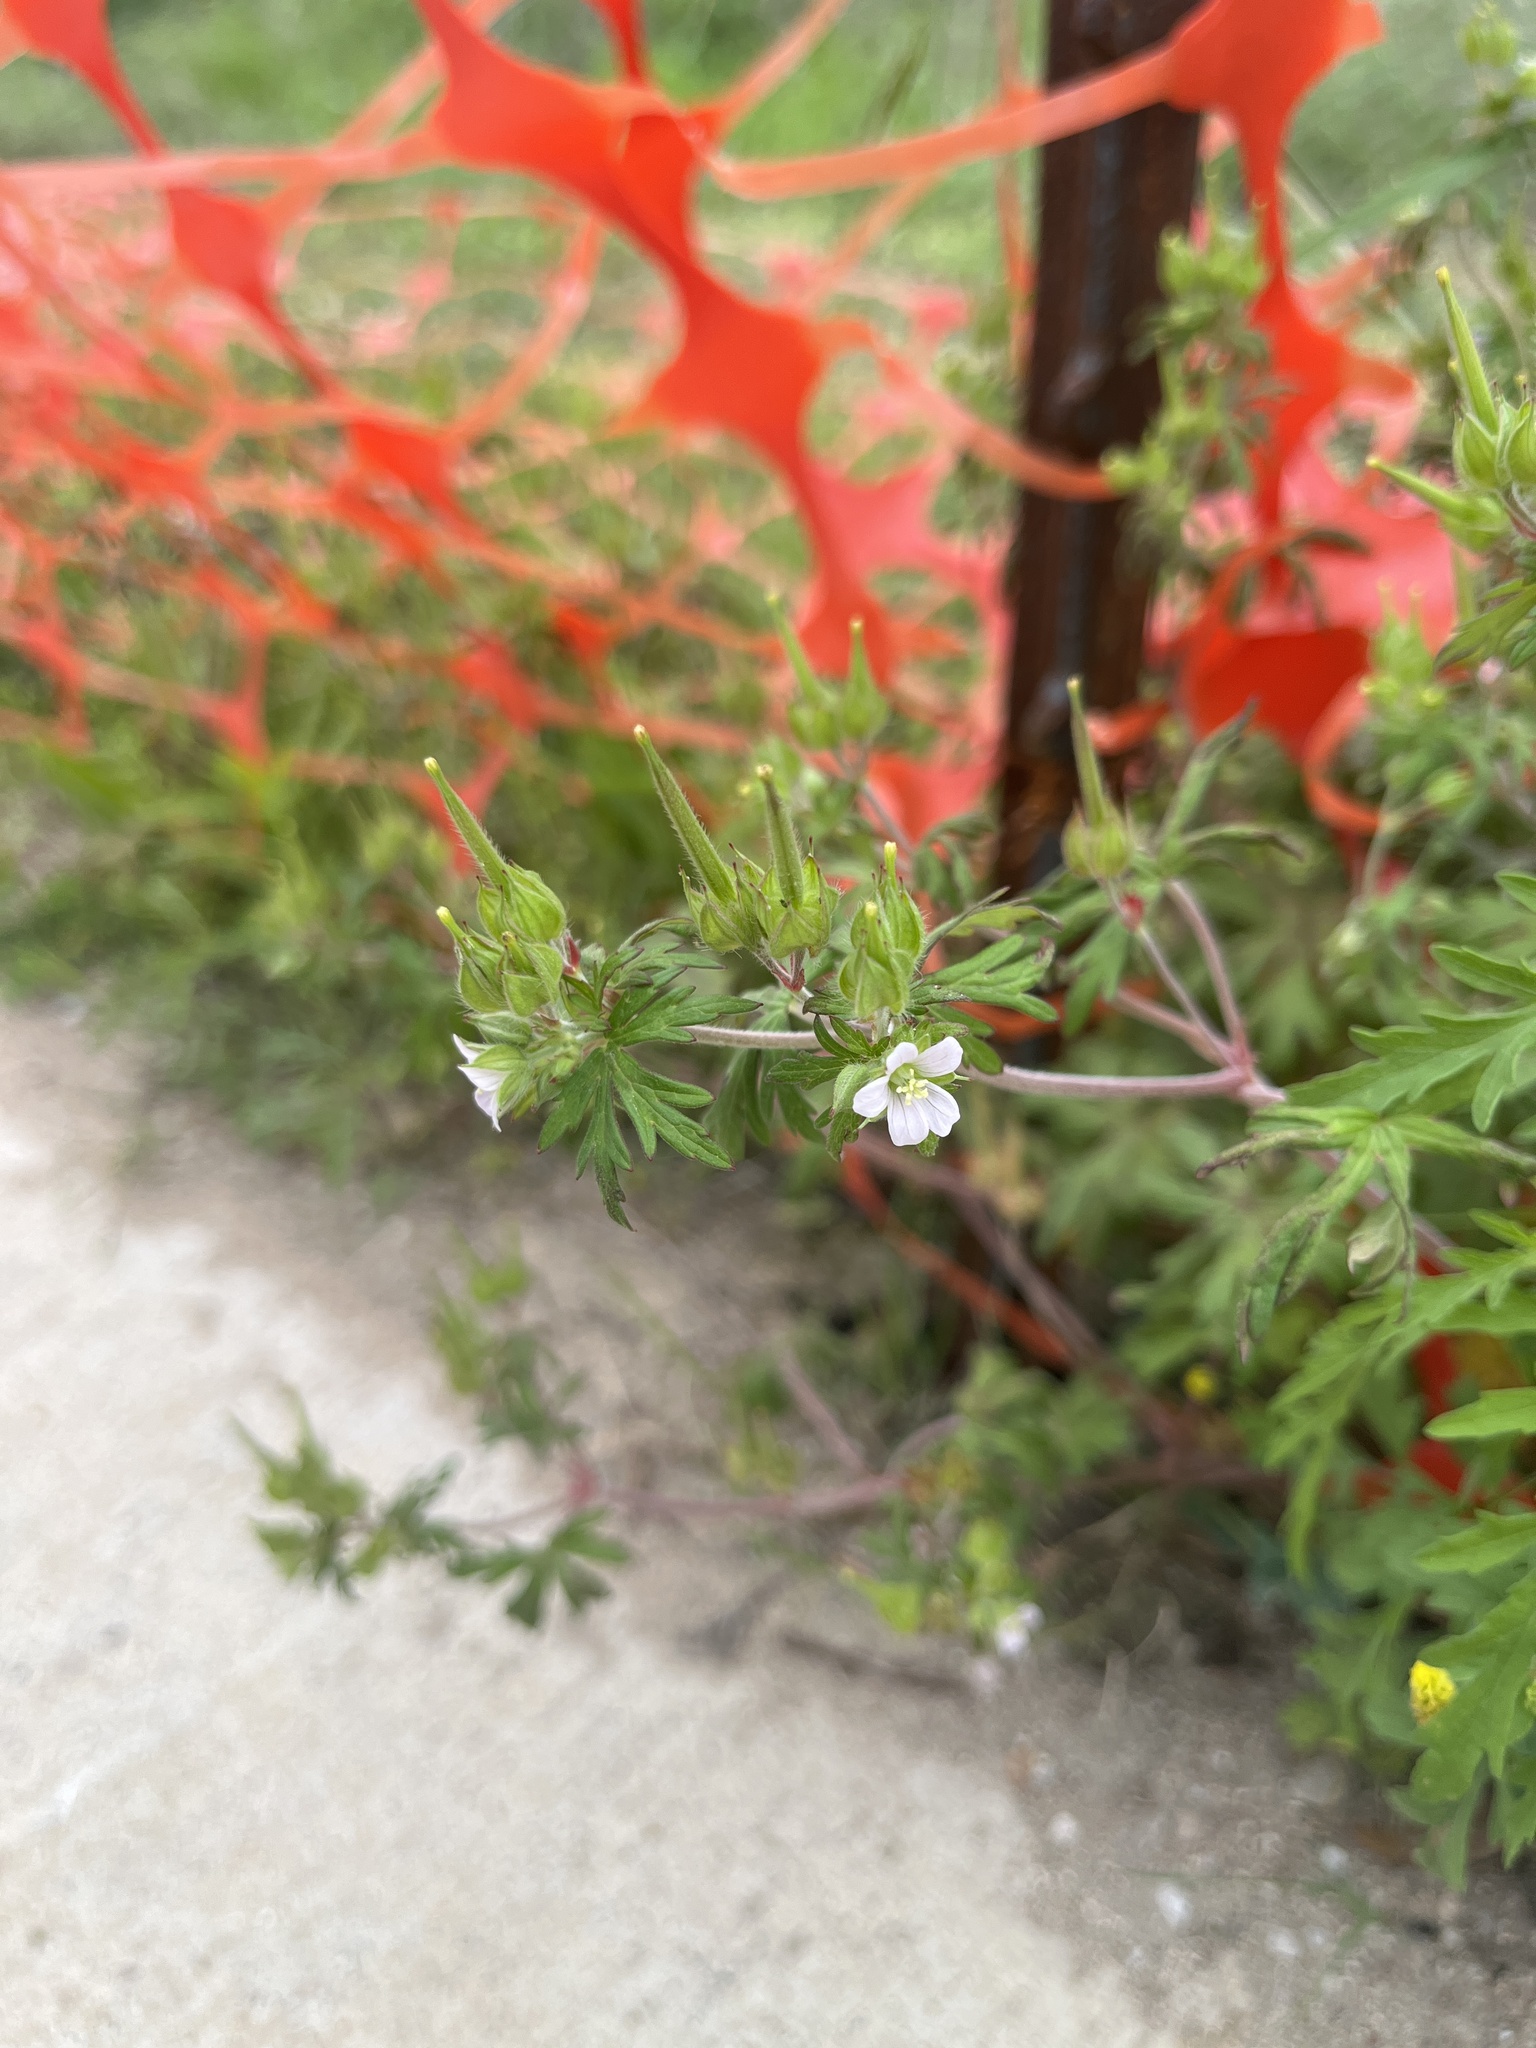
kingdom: Plantae
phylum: Tracheophyta
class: Magnoliopsida
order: Geraniales
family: Geraniaceae
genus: Geranium
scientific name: Geranium carolinianum
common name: Carolina crane's-bill
